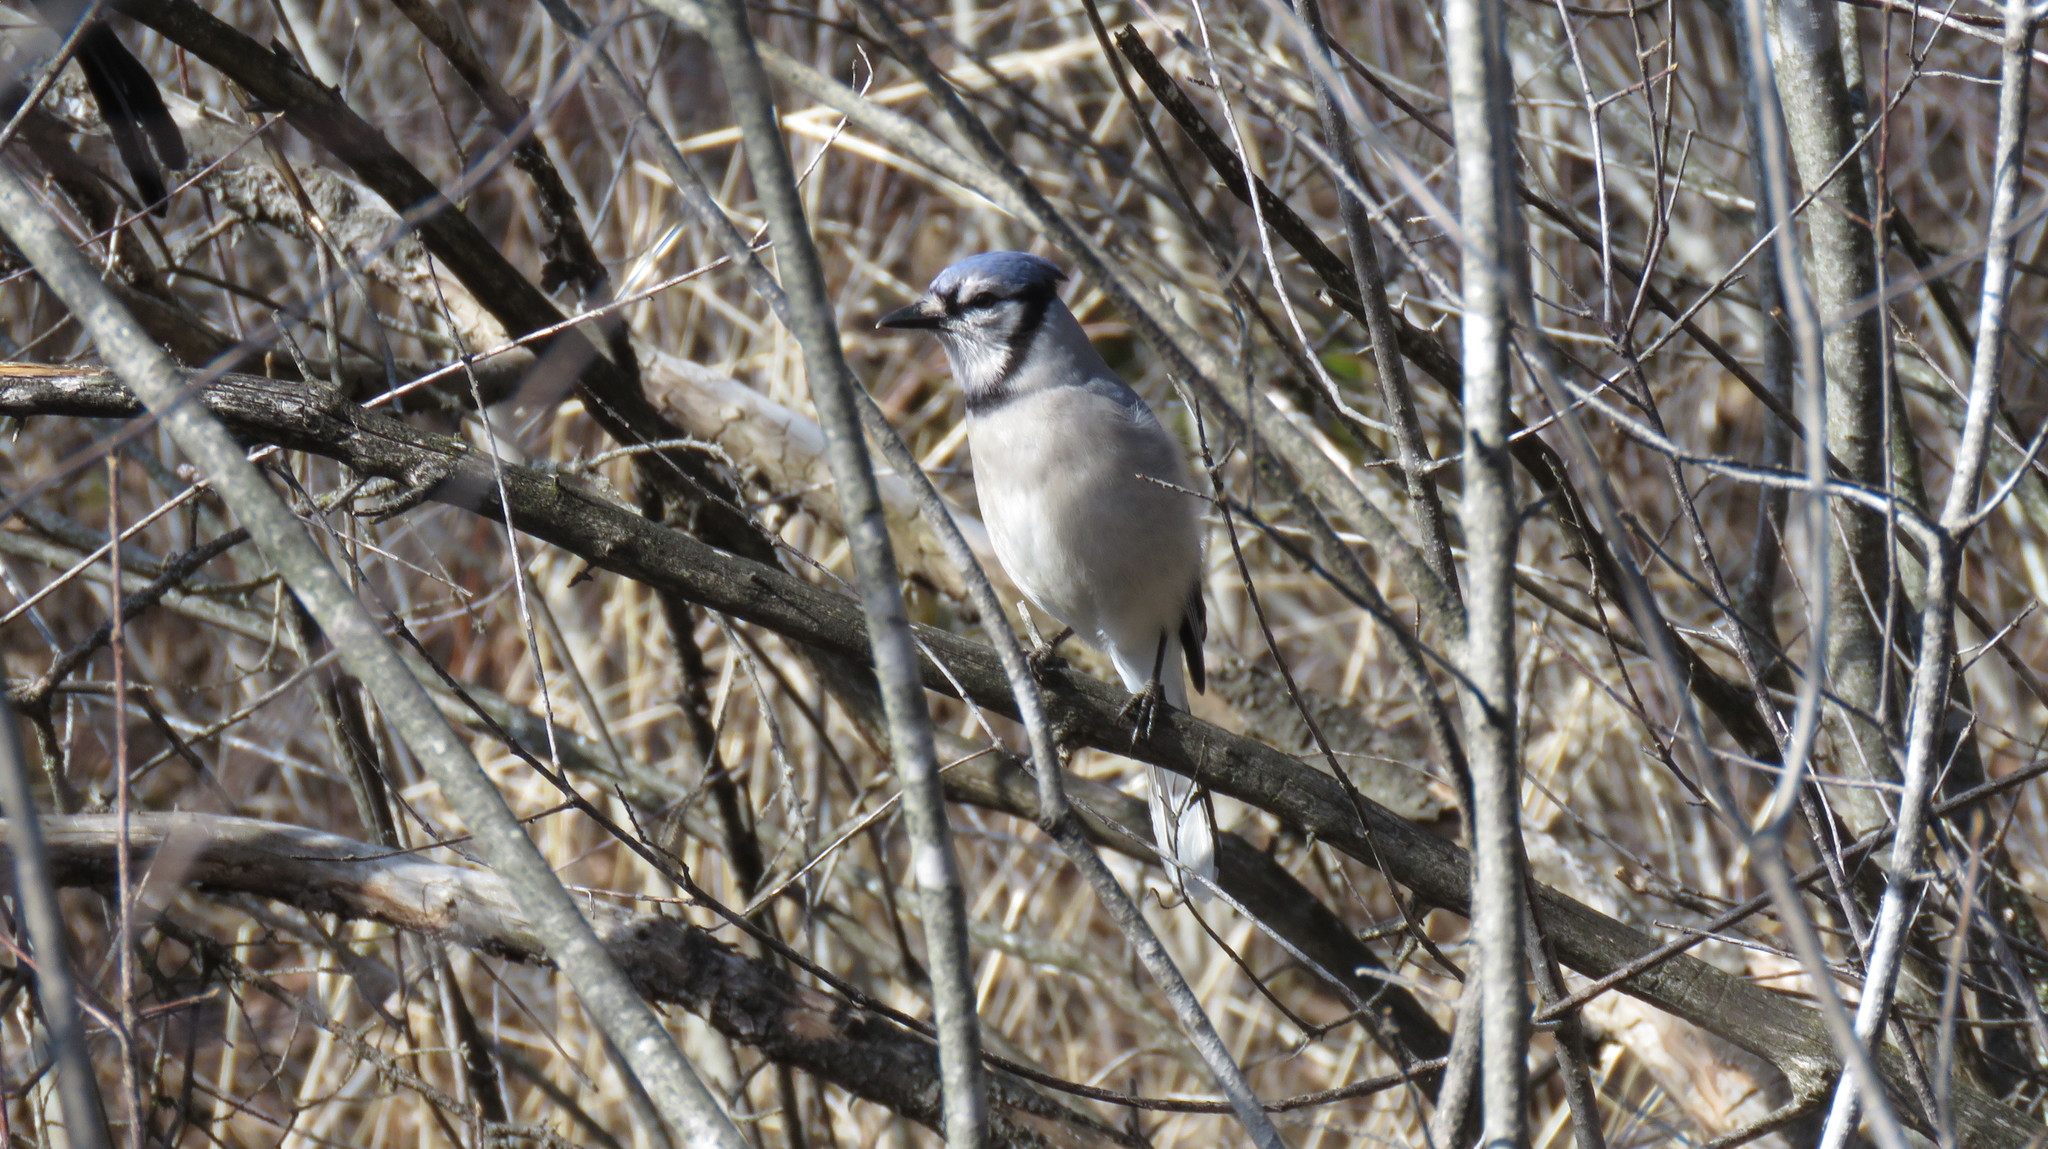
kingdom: Animalia
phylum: Chordata
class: Aves
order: Passeriformes
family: Corvidae
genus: Cyanocitta
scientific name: Cyanocitta cristata
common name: Blue jay
